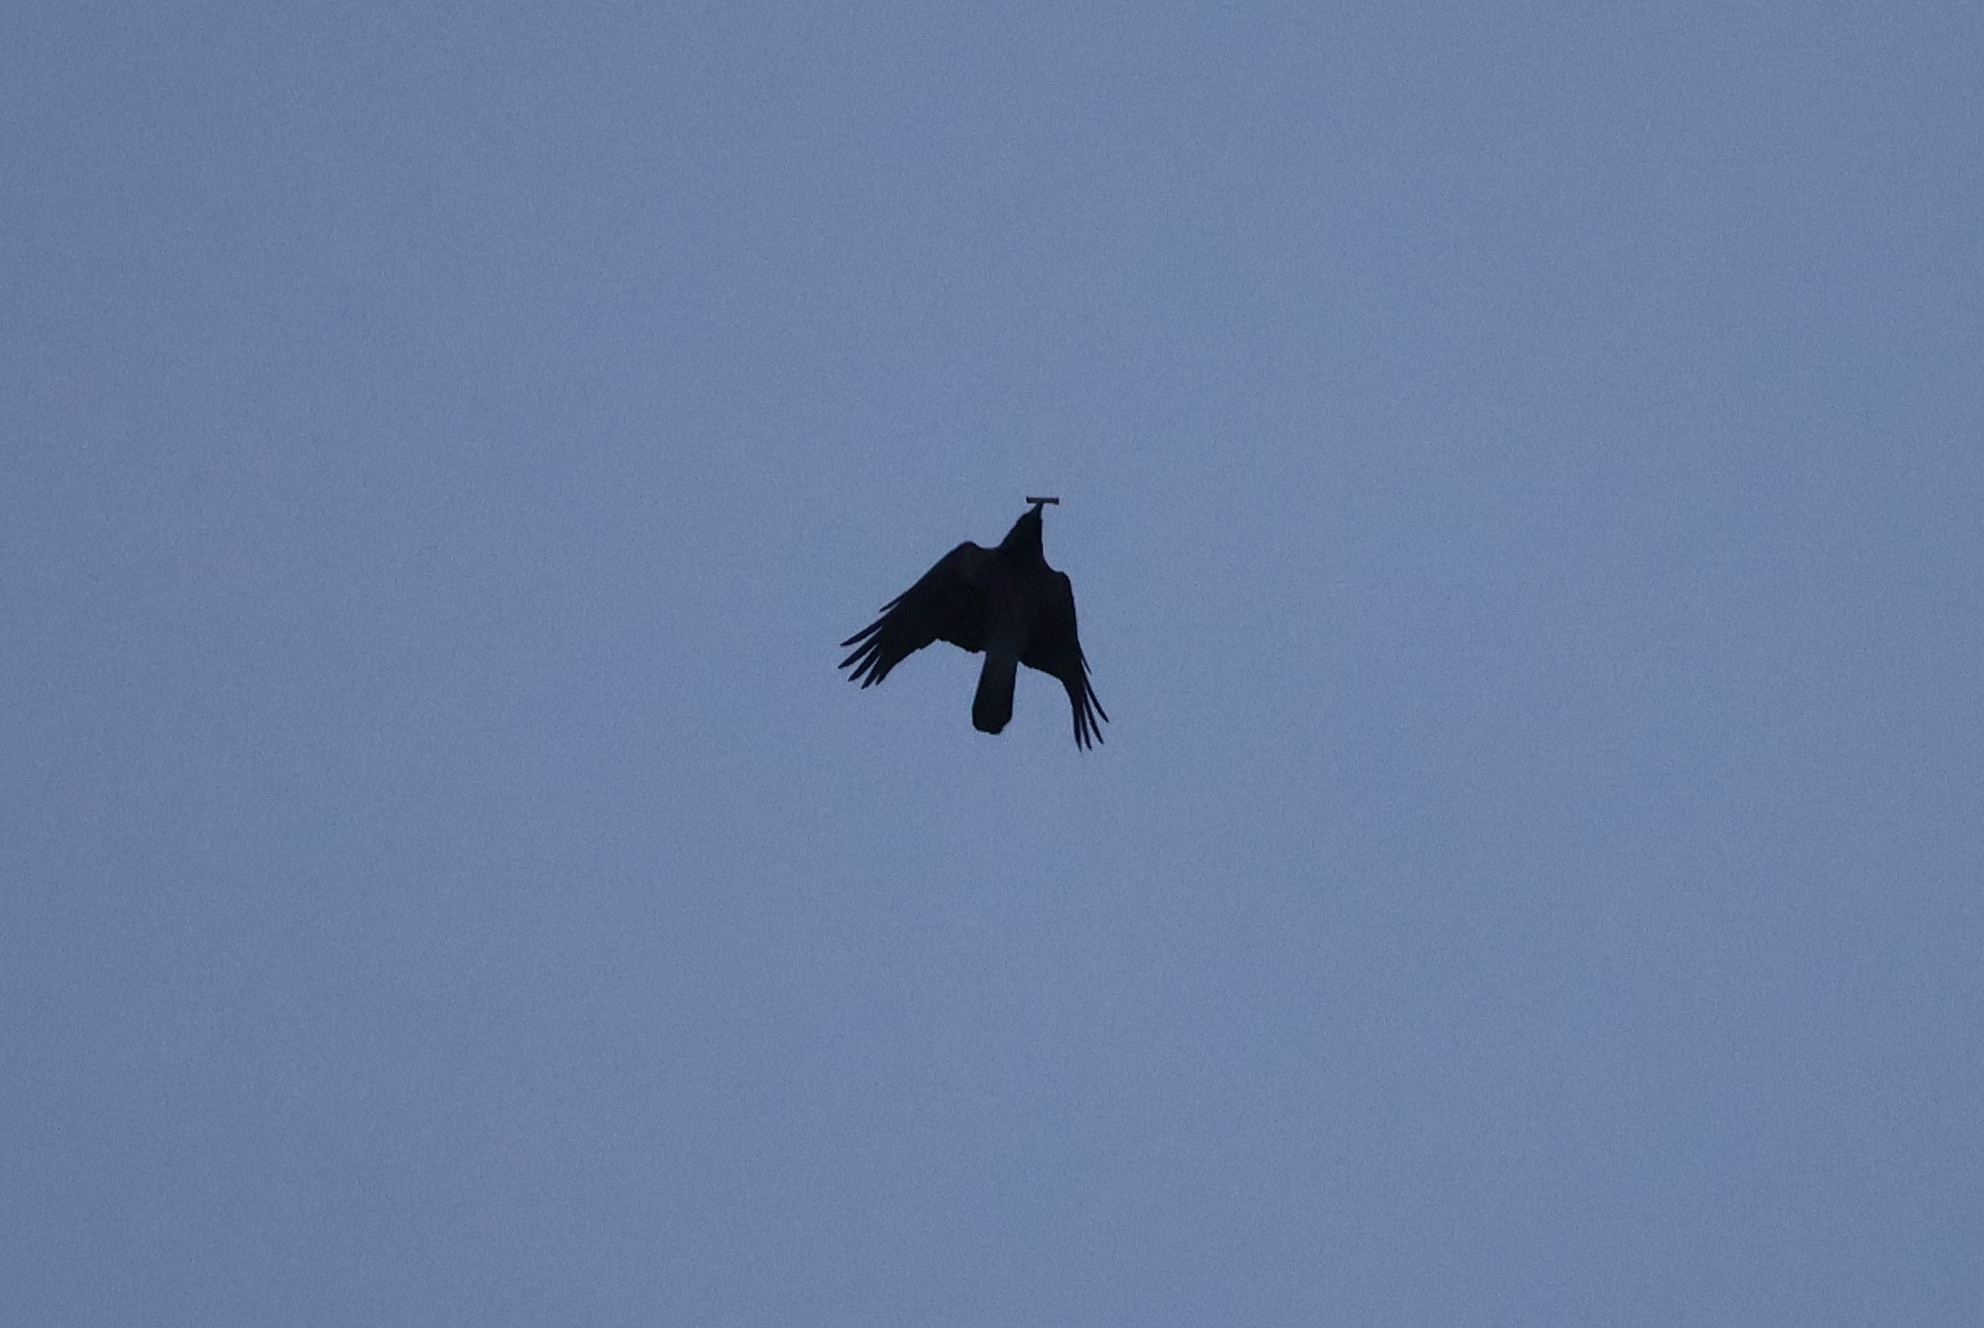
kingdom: Animalia
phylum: Chordata
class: Aves
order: Passeriformes
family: Corvidae
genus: Corvus
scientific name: Corvus cornix
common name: Hooded crow
